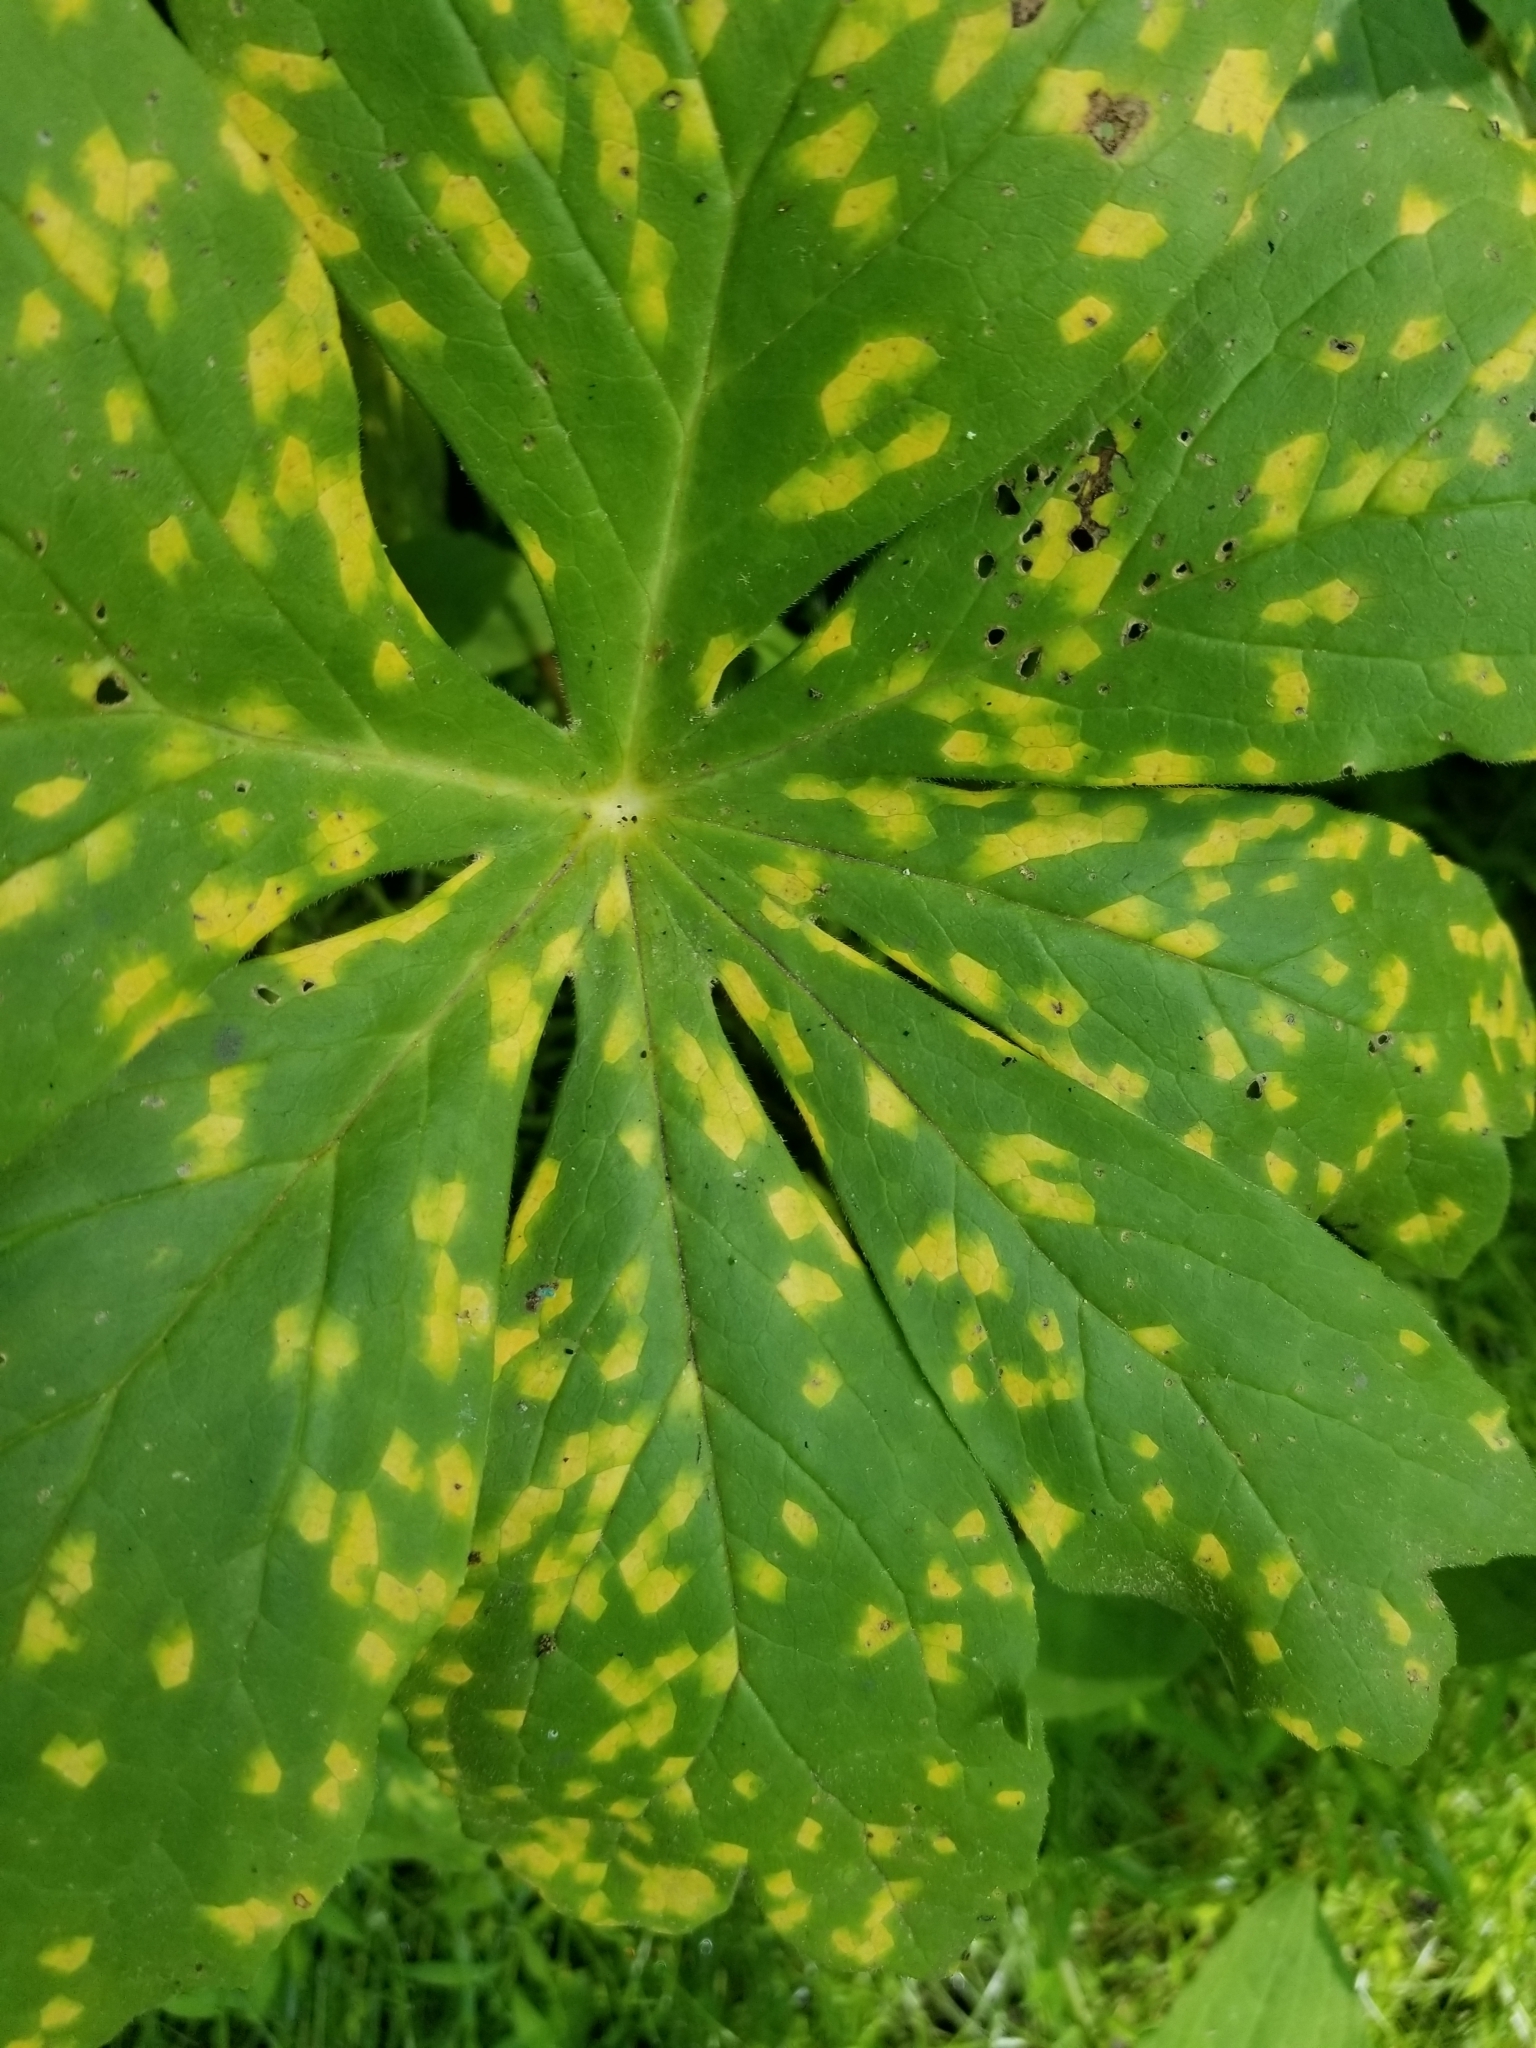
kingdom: Fungi
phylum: Basidiomycota
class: Pucciniomycetes
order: Pucciniales
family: Pucciniaceae
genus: Puccinia
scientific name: Puccinia podophylli
